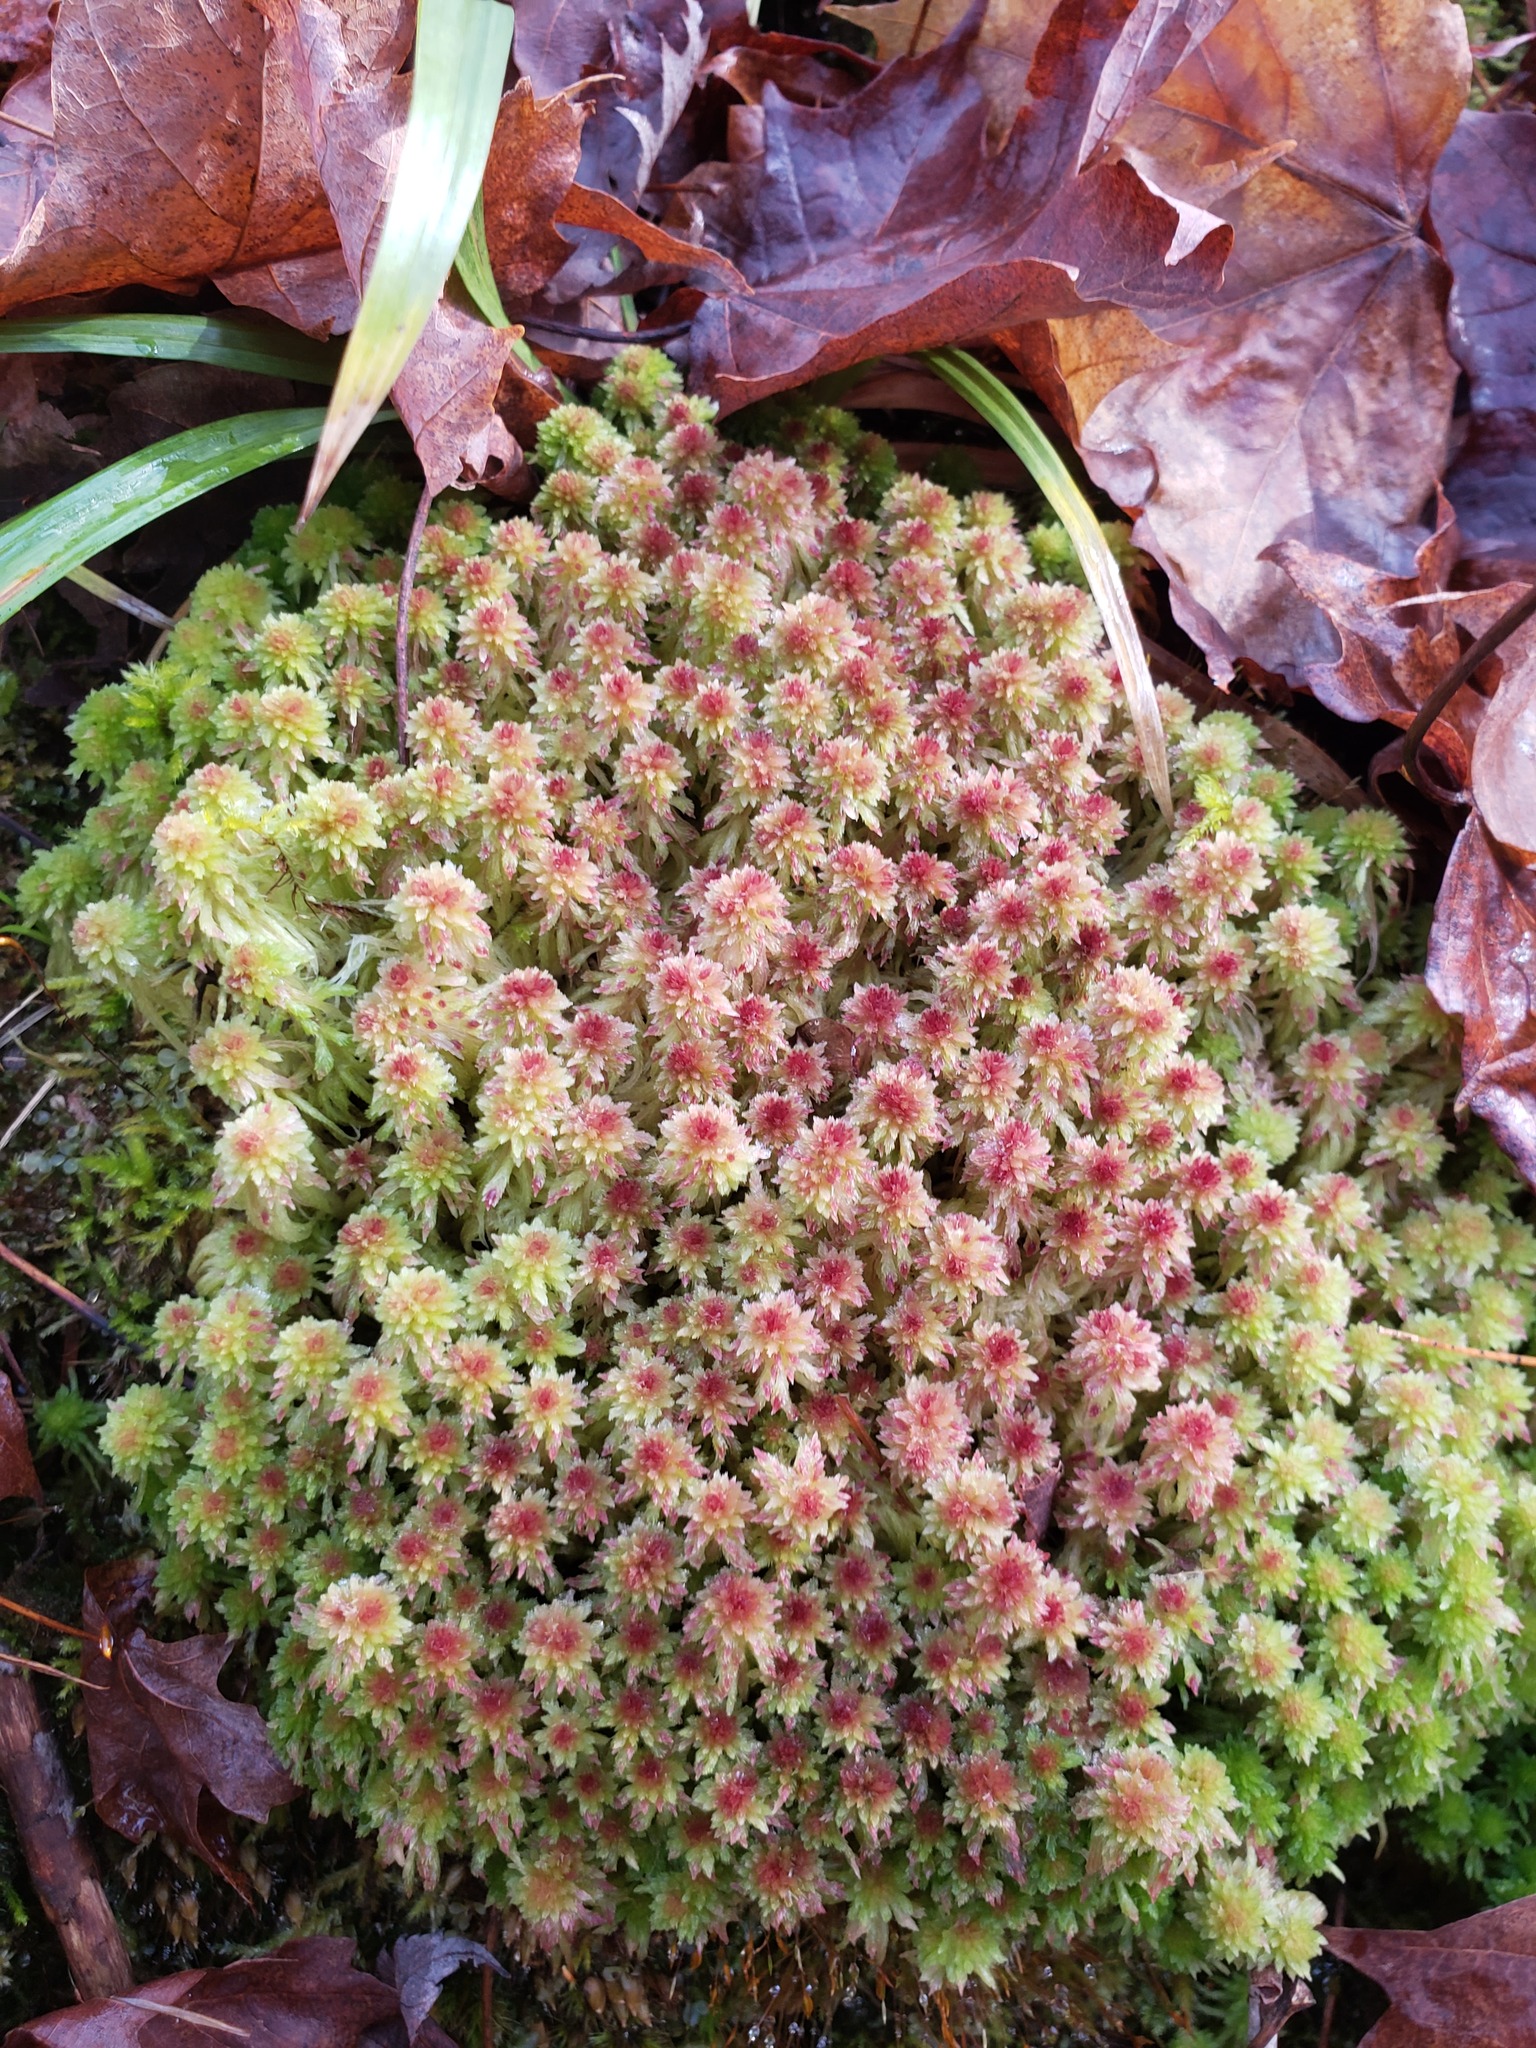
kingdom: Plantae
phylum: Bryophyta
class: Sphagnopsida
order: Sphagnales
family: Sphagnaceae
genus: Sphagnum
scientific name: Sphagnum capillifolium
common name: Small red peat moss
